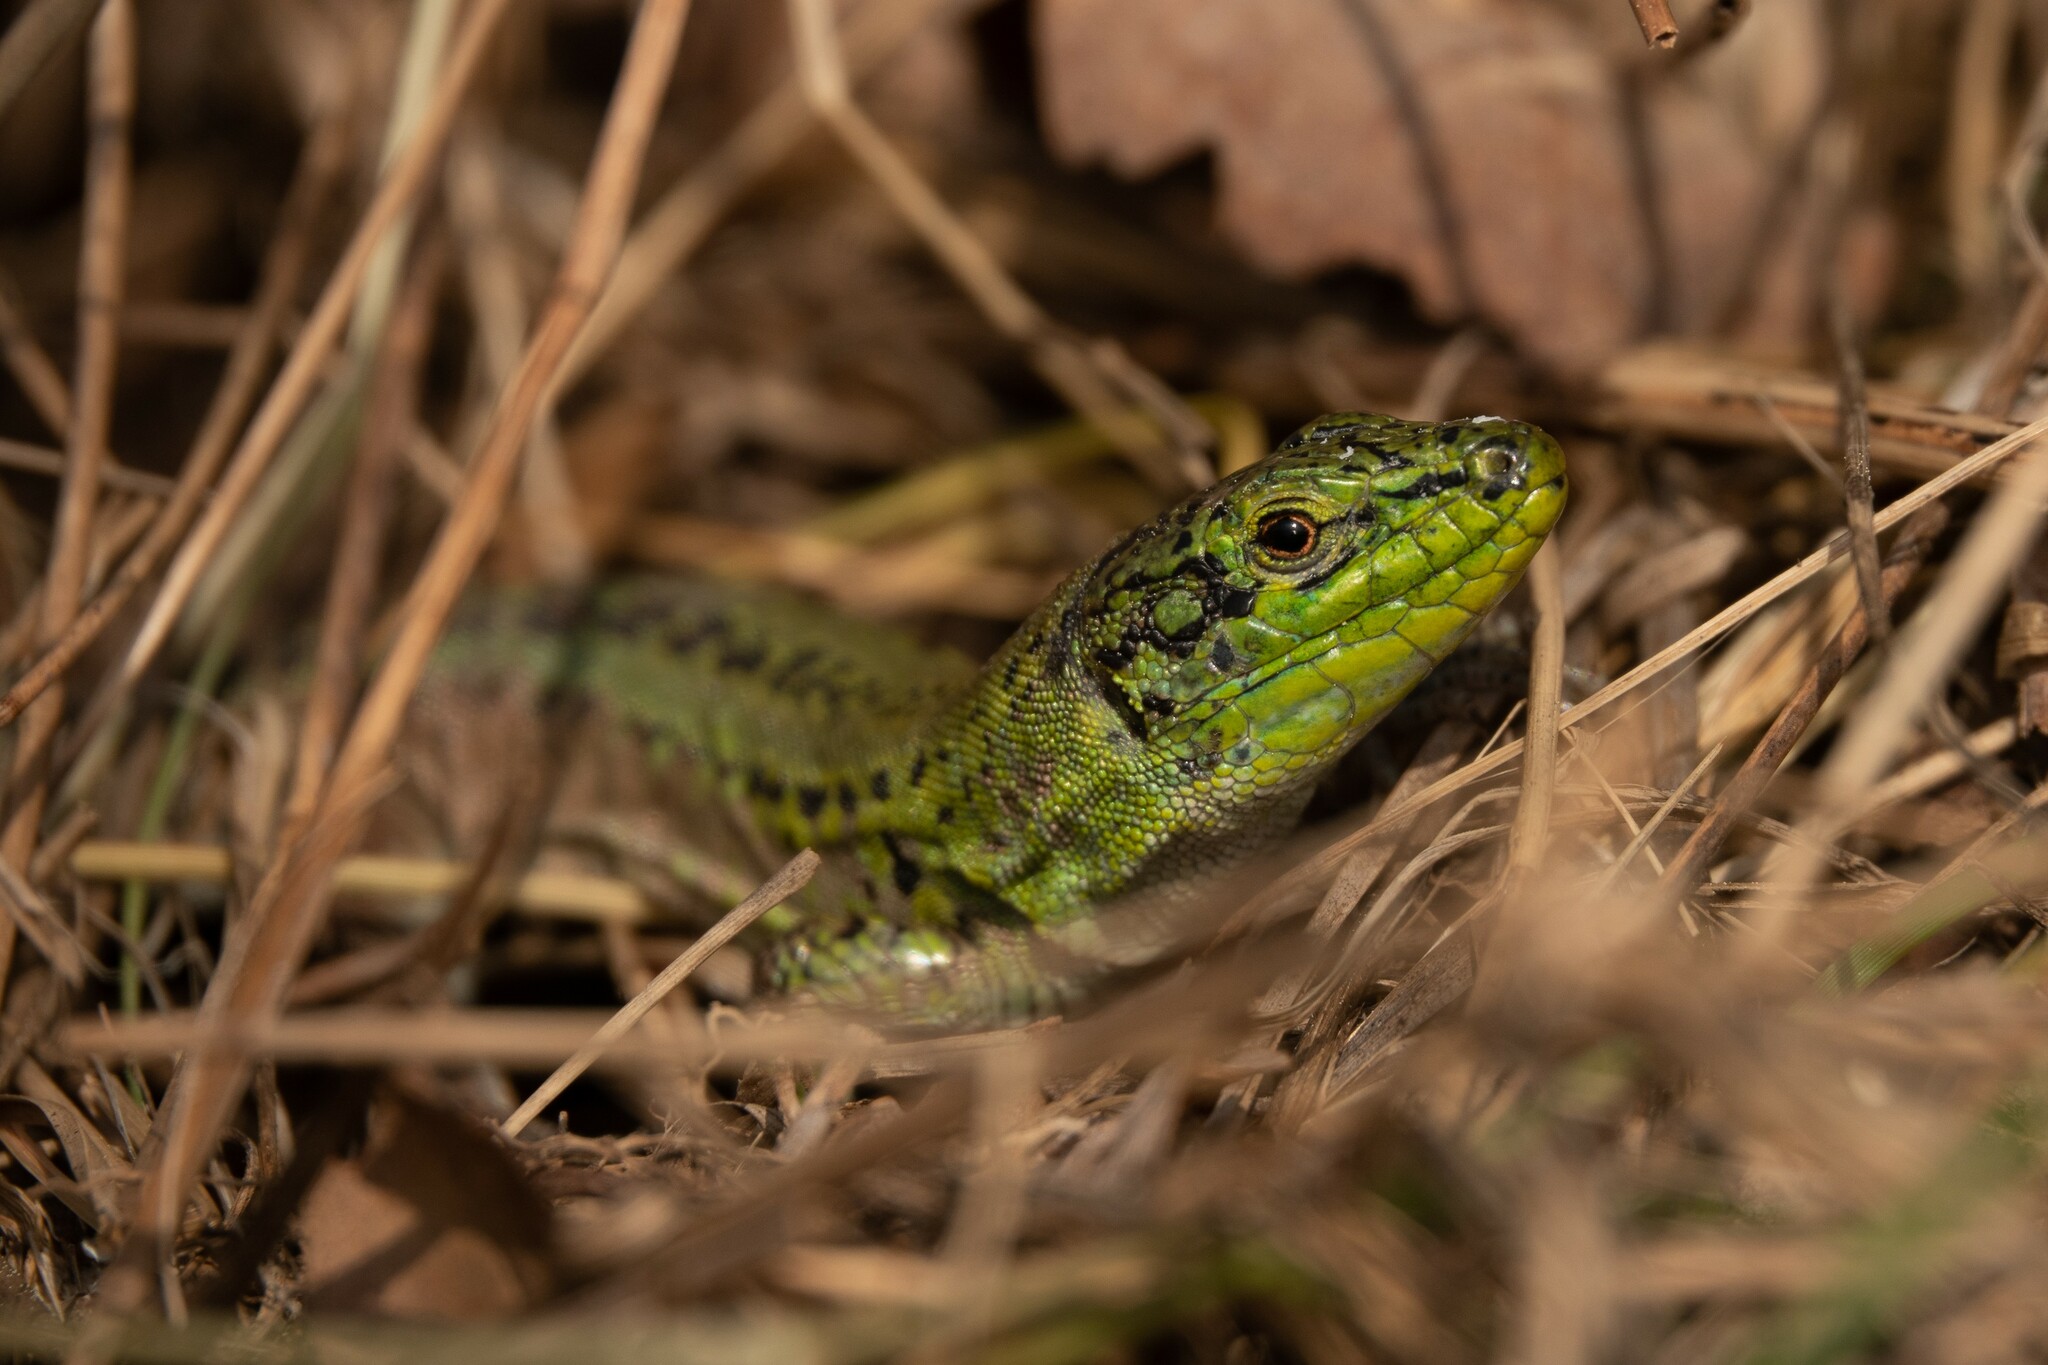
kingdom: Animalia
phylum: Chordata
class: Squamata
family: Lacertidae
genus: Podarcis
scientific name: Podarcis siculus
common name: Italian wall lizard
